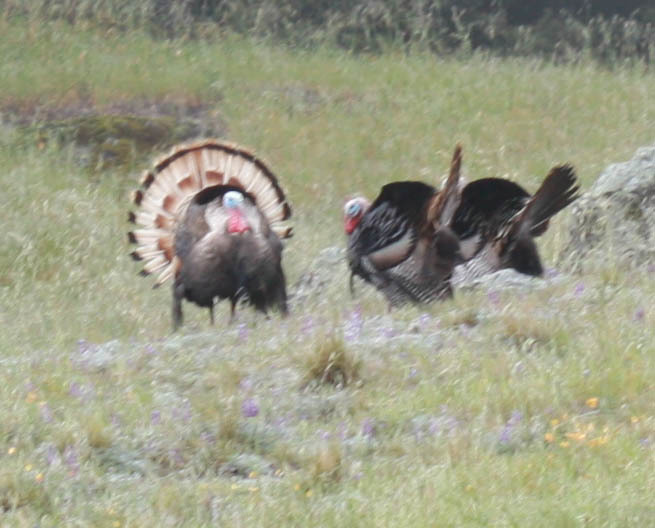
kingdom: Animalia
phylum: Chordata
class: Aves
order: Galliformes
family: Phasianidae
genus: Meleagris
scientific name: Meleagris gallopavo
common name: Wild turkey
